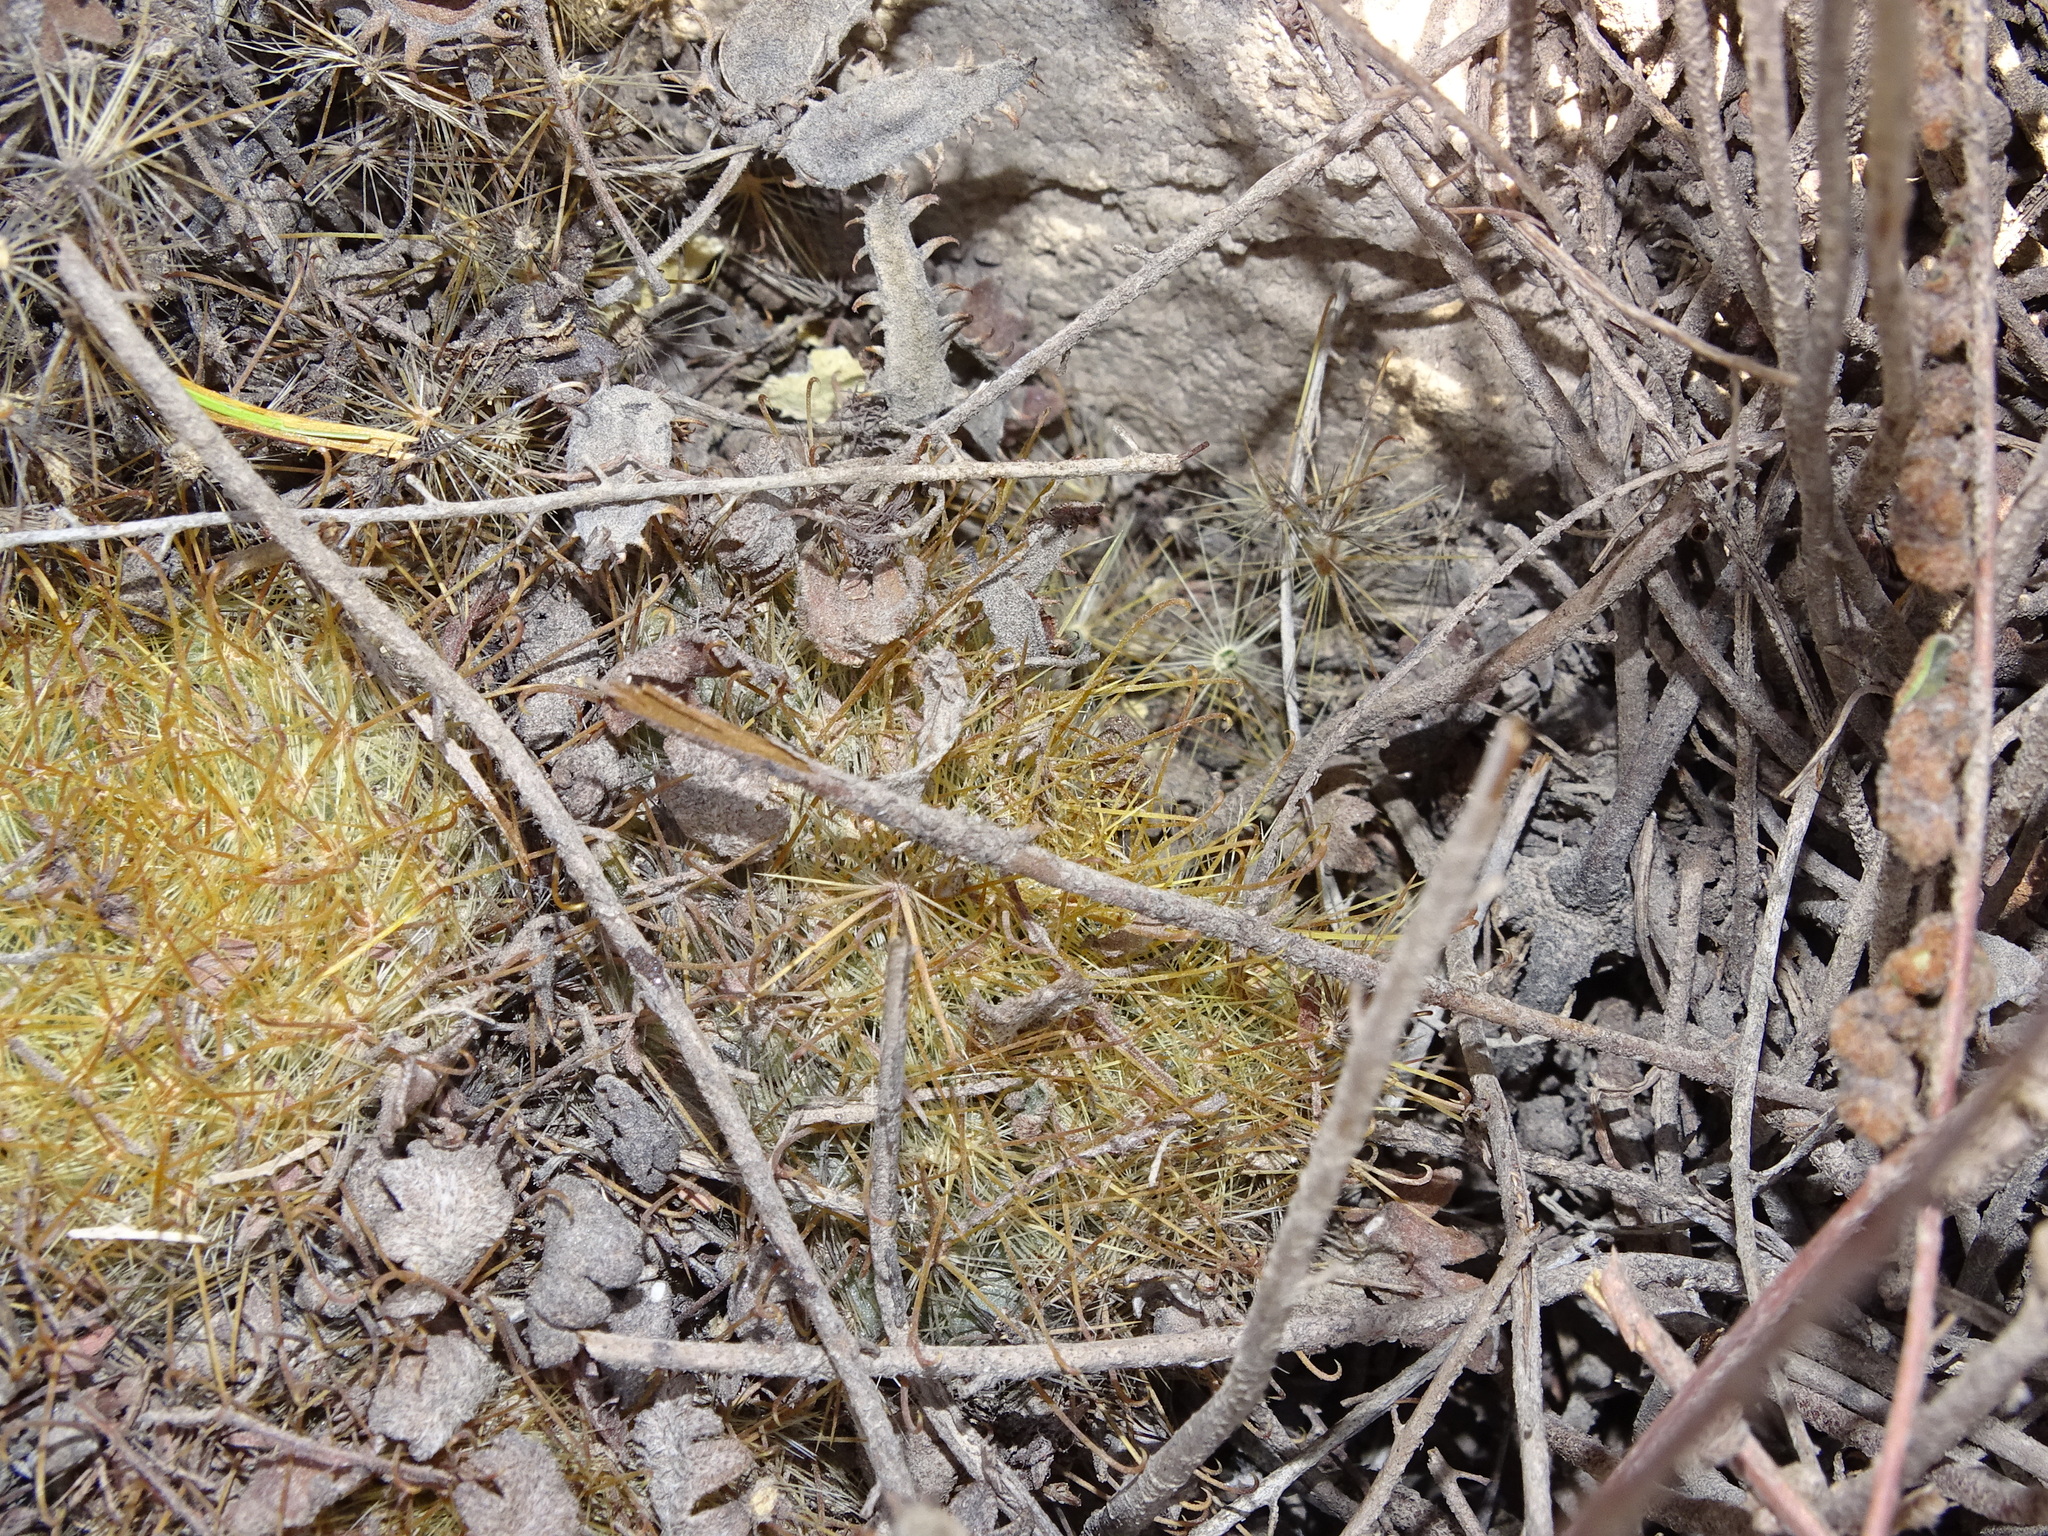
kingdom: Plantae
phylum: Tracheophyta
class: Magnoliopsida
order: Caryophyllales
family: Cactaceae
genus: Mammillaria
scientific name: Mammillaria sinistrohamata
